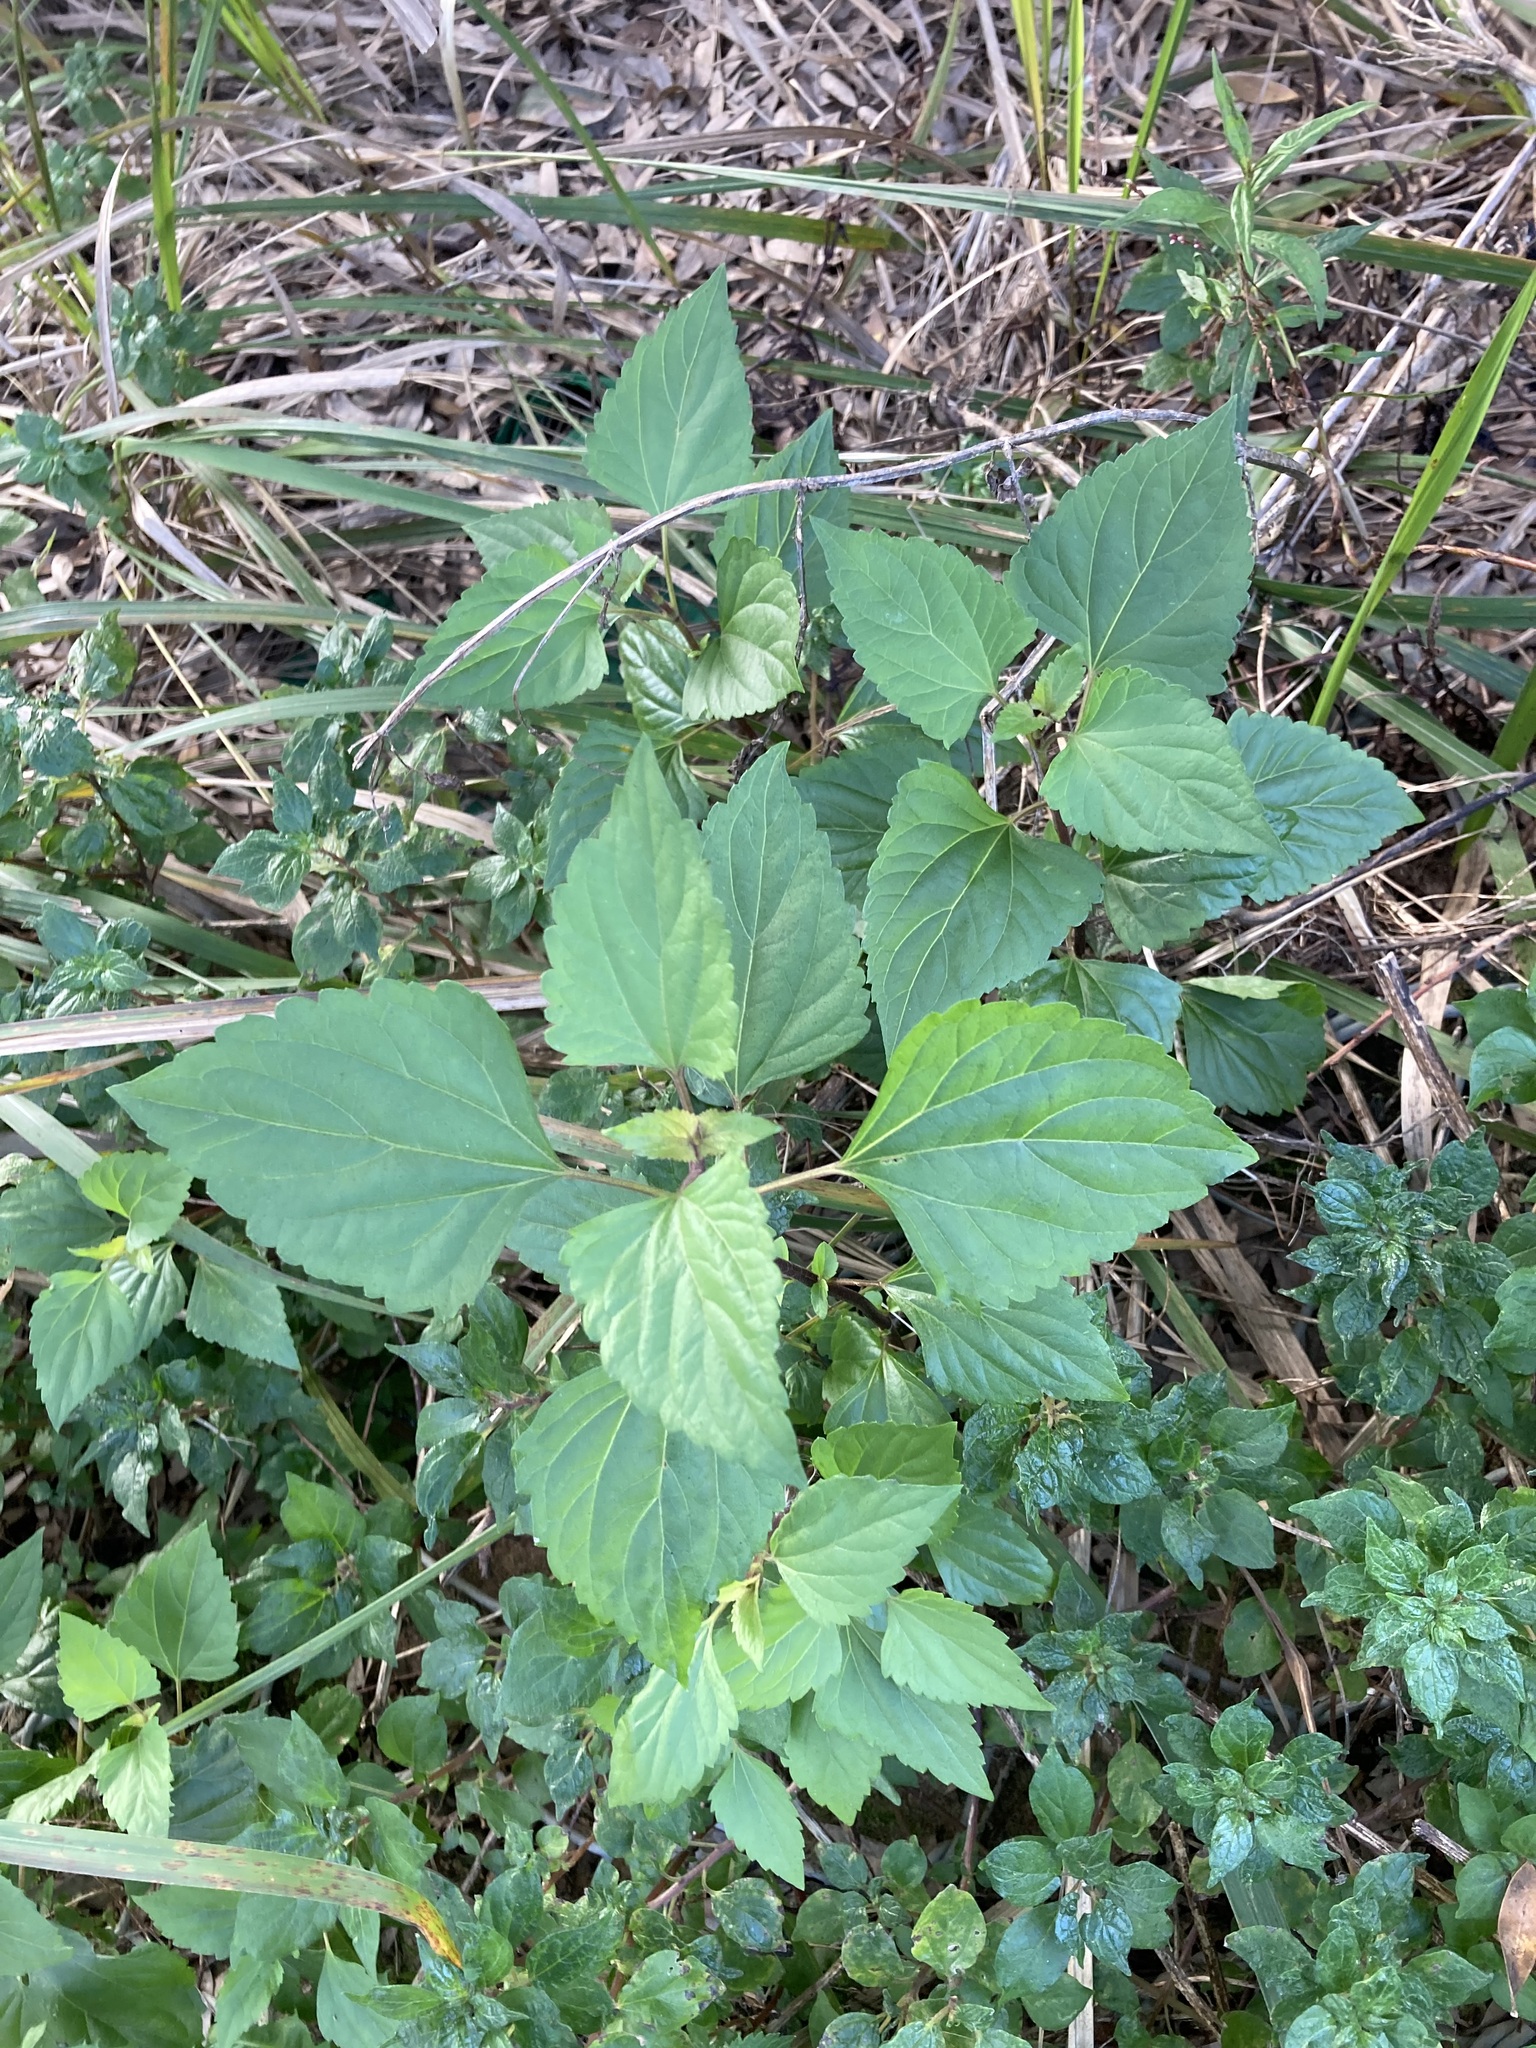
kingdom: Plantae
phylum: Tracheophyta
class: Magnoliopsida
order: Asterales
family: Asteraceae
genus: Ageratina
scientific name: Ageratina adenophora
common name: Sticky snakeroot
